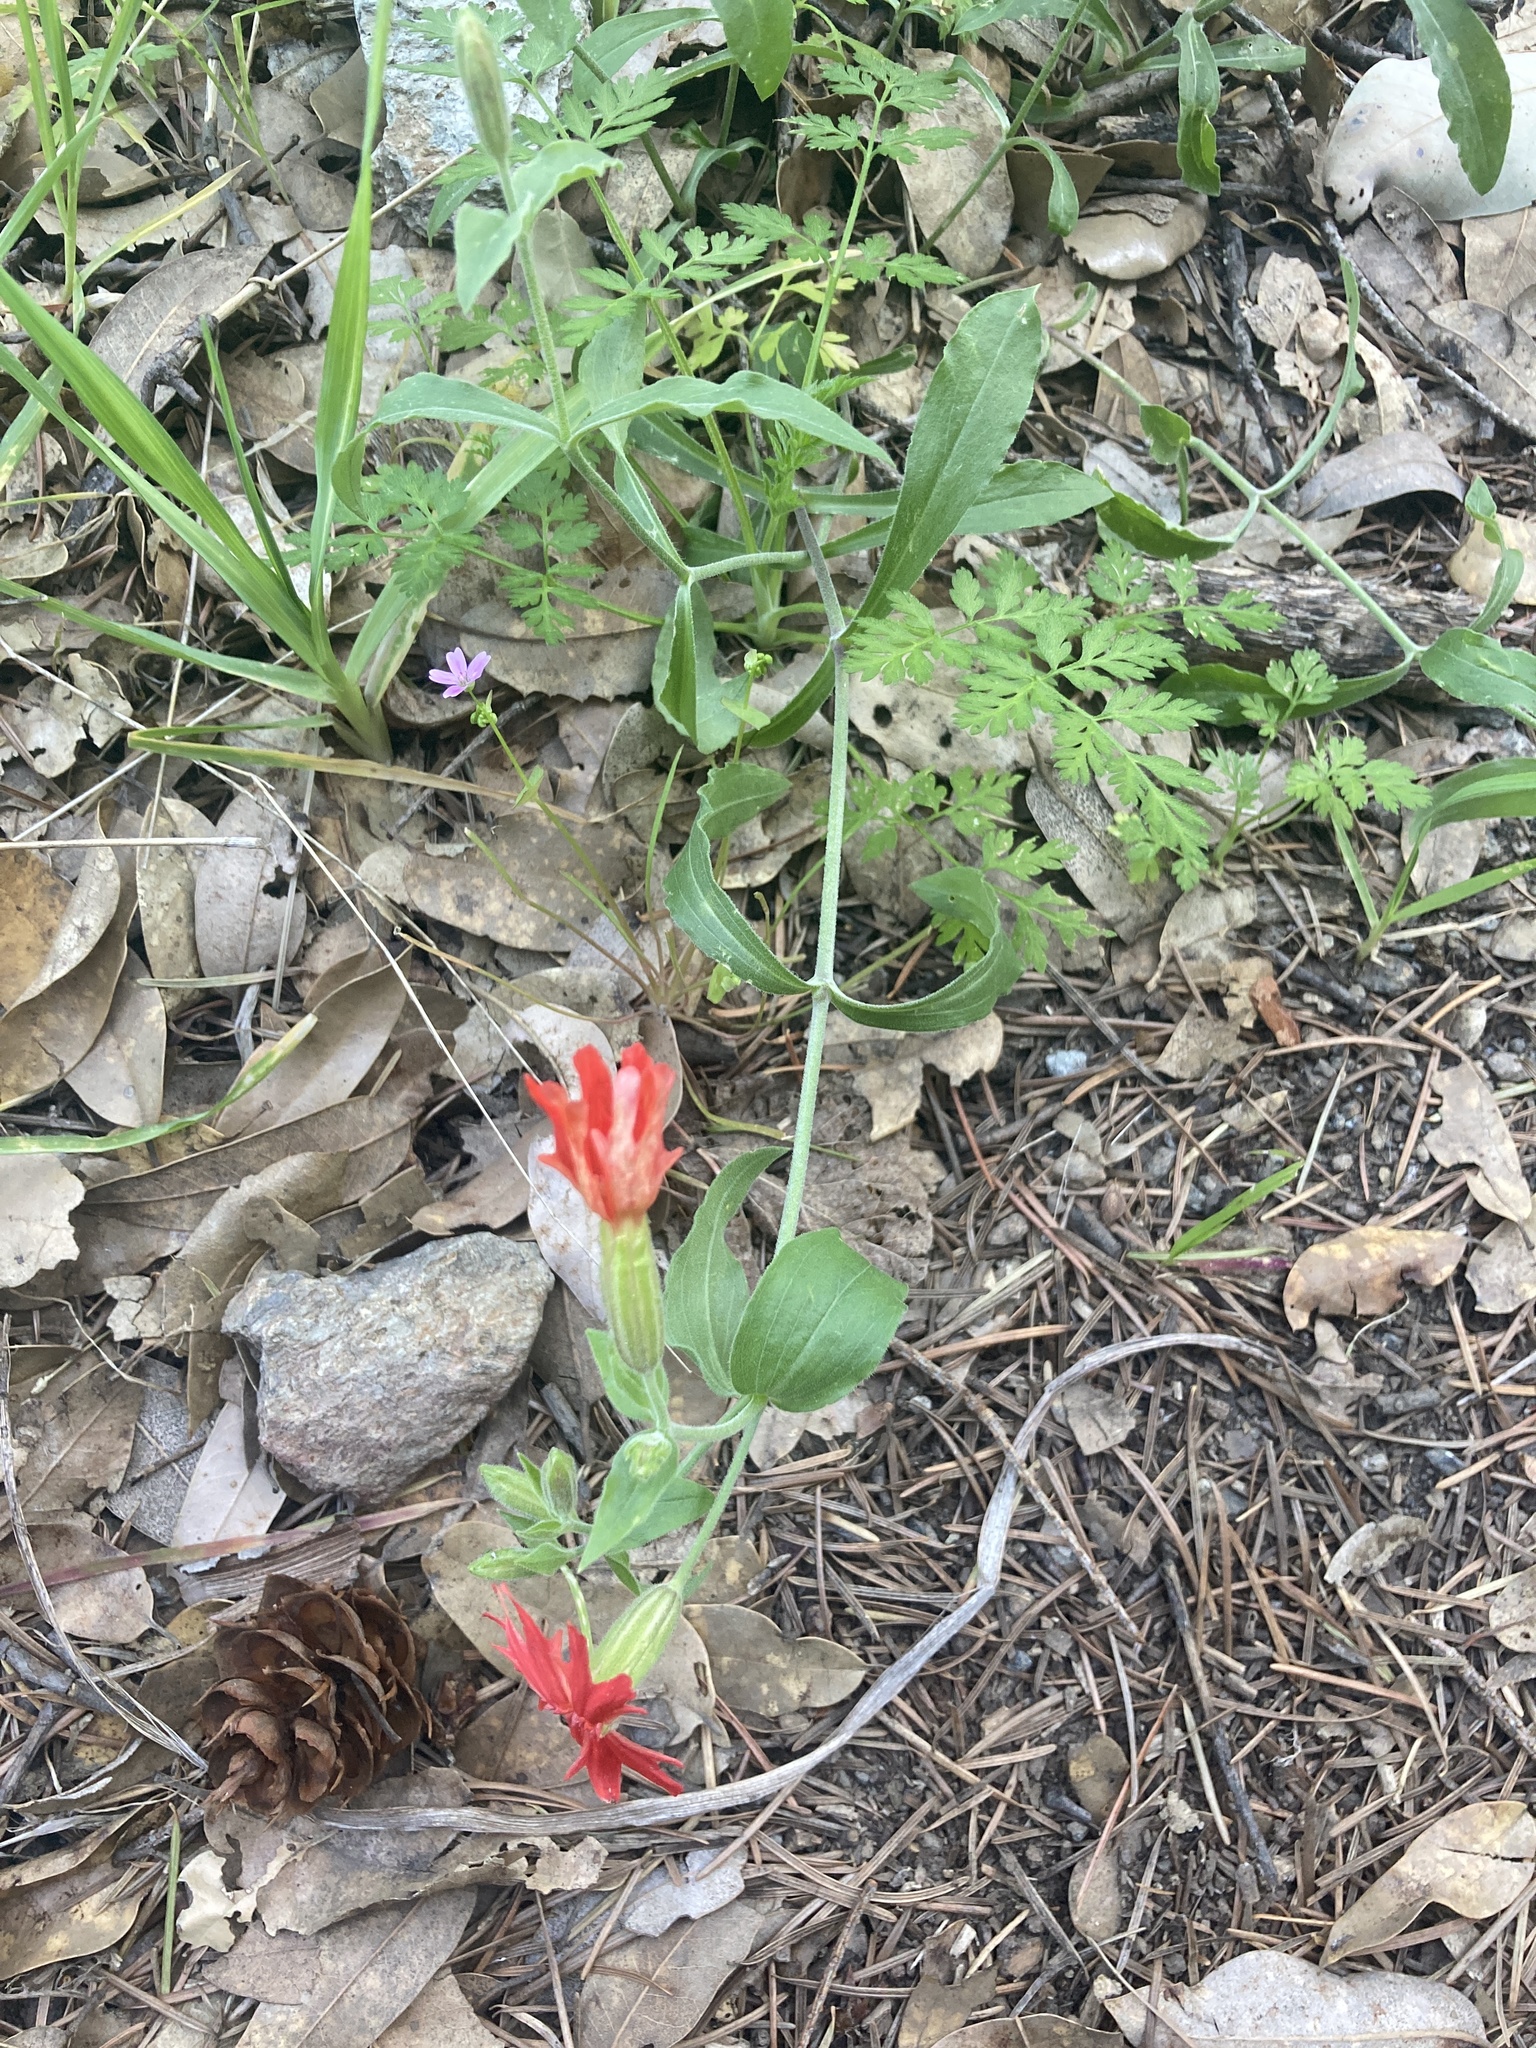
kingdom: Plantae
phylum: Tracheophyta
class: Magnoliopsida
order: Caryophyllales
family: Caryophyllaceae
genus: Silene
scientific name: Silene laciniata
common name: Indian-pink
